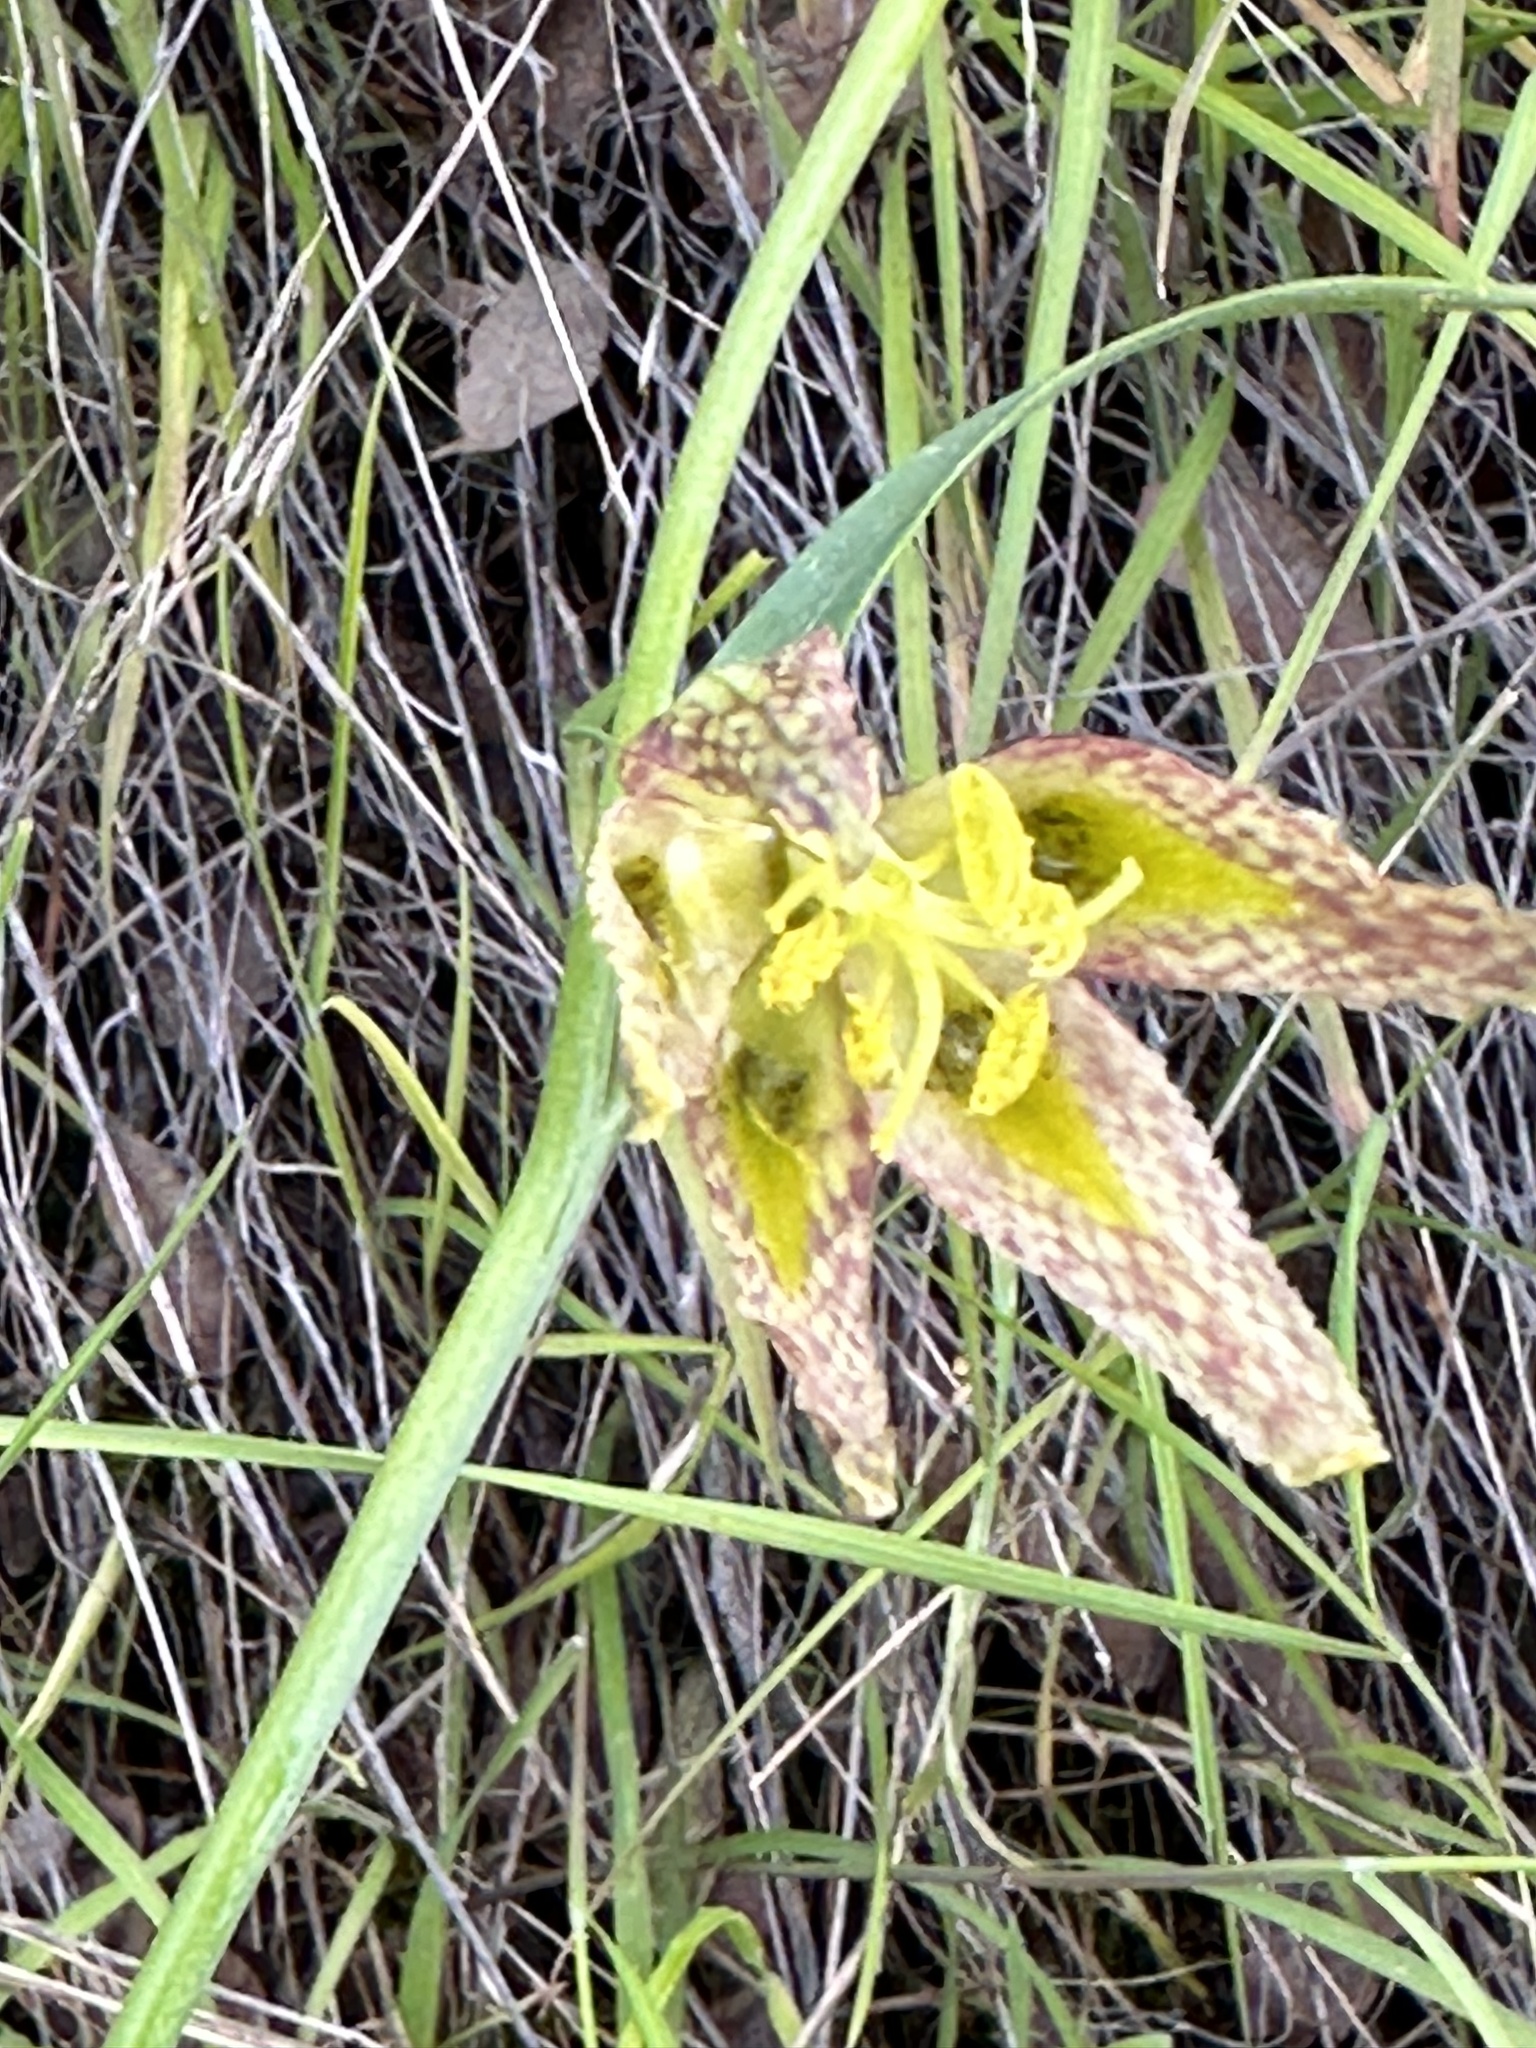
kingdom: Plantae
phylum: Tracheophyta
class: Liliopsida
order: Liliales
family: Liliaceae
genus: Fritillaria
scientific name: Fritillaria affinis
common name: Ojai fritillary
